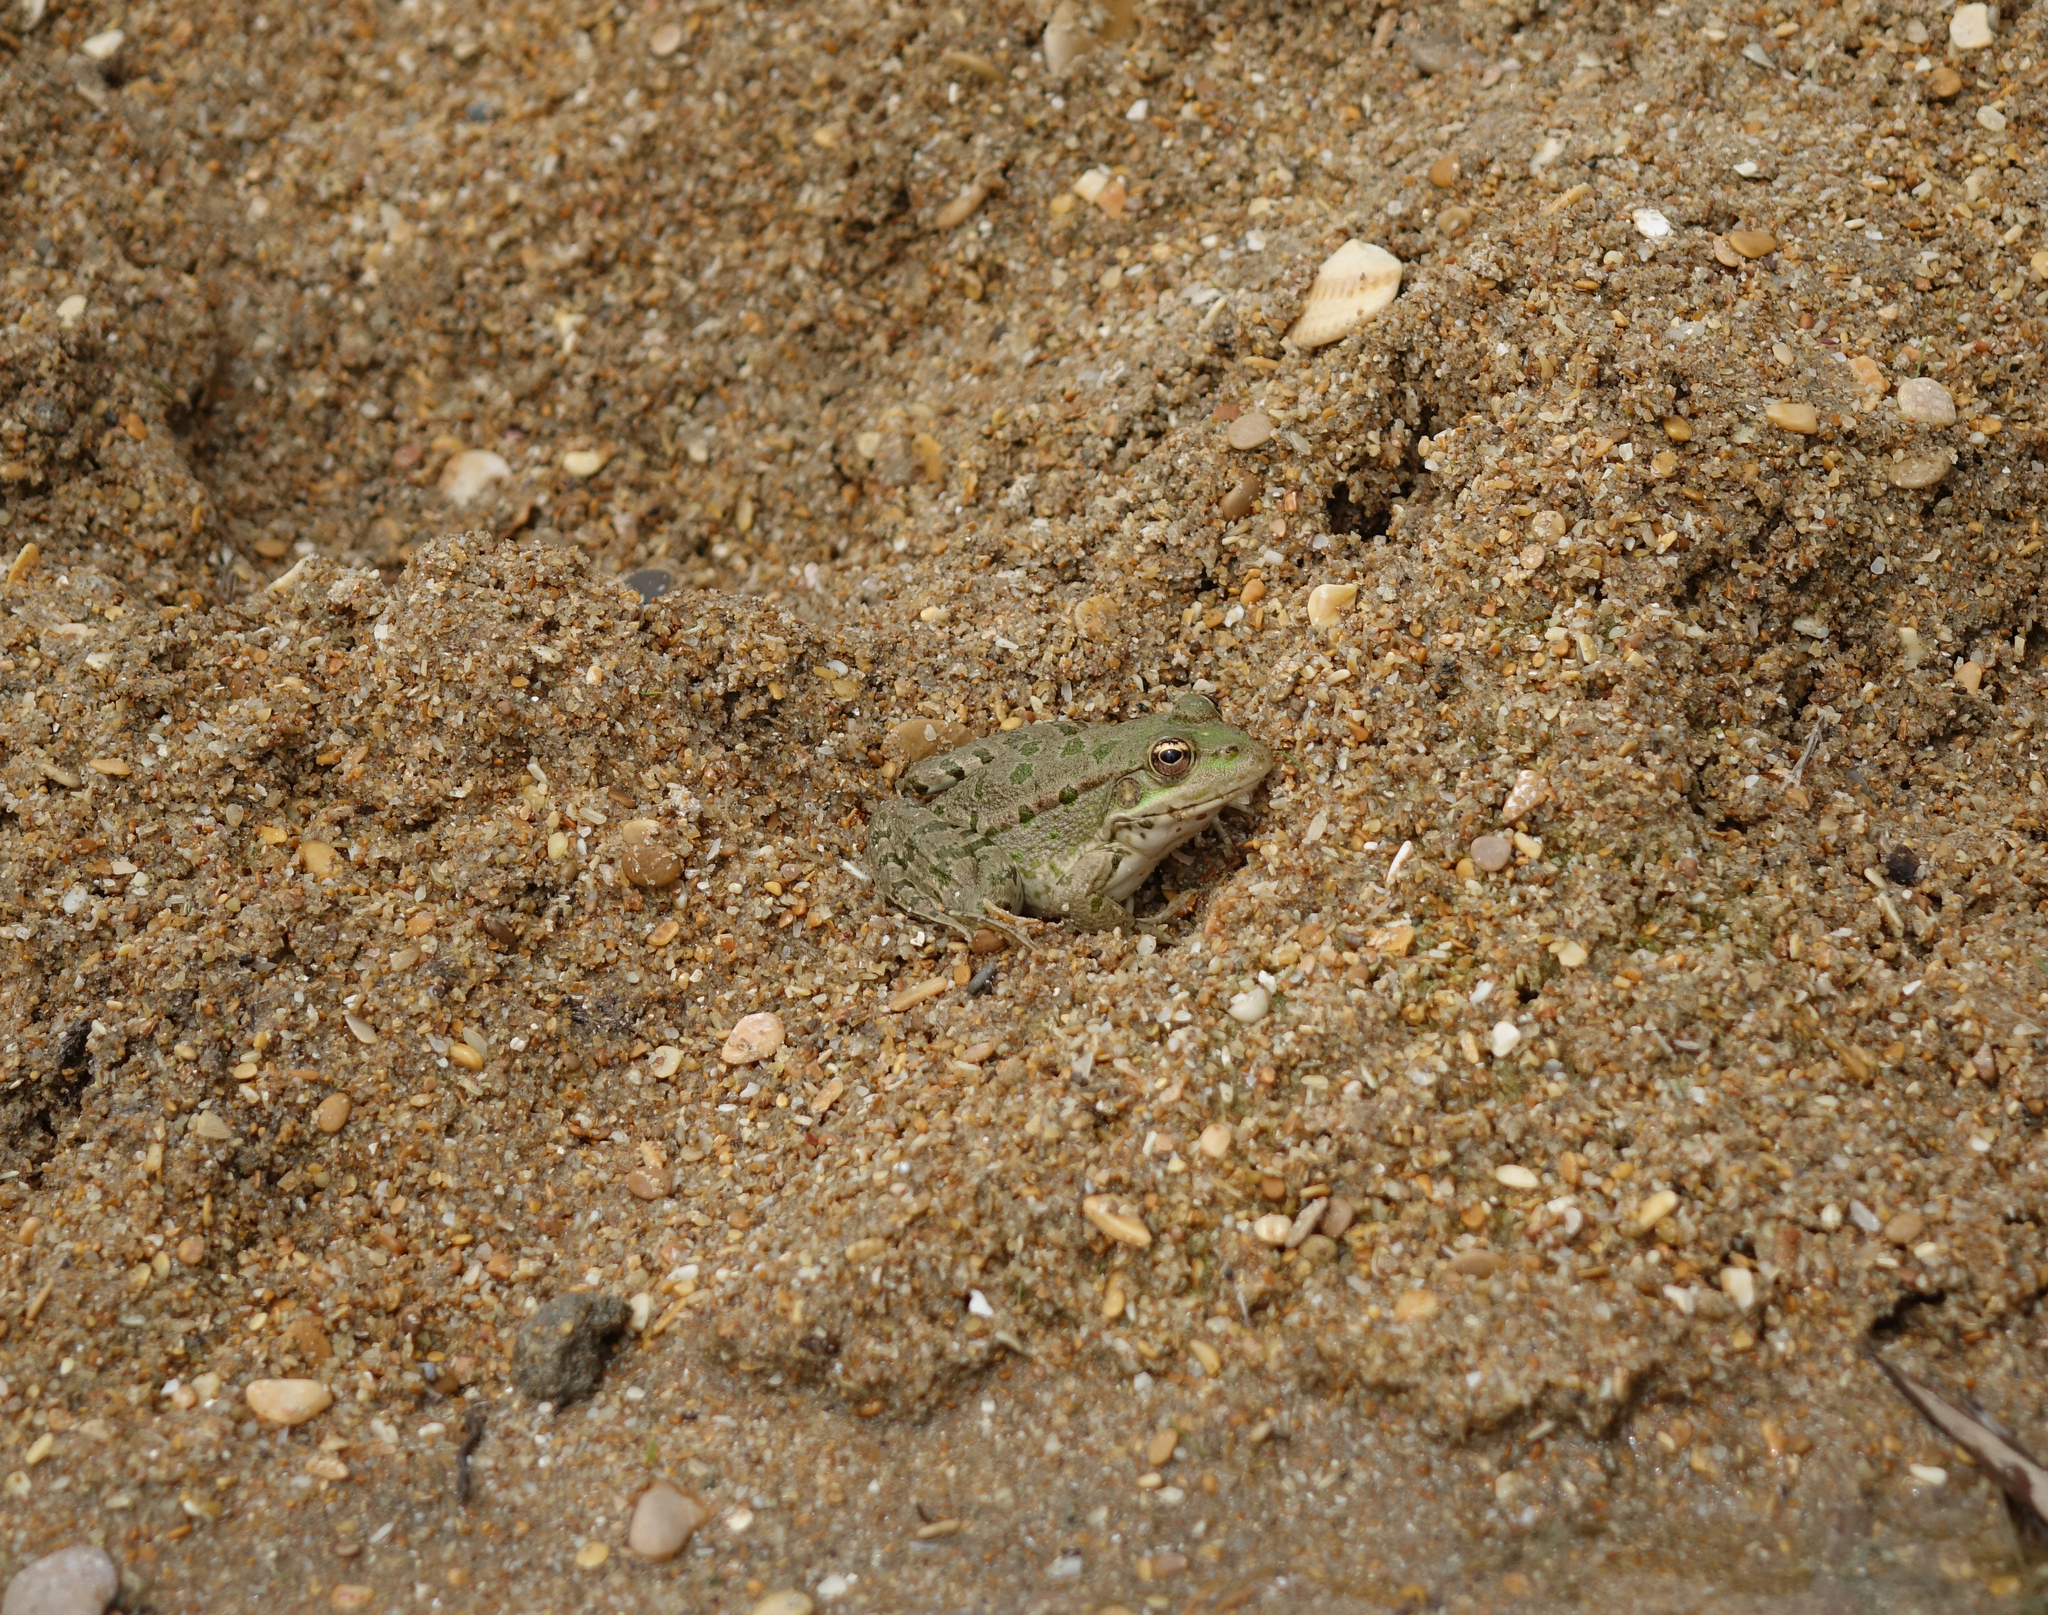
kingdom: Animalia
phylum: Chordata
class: Amphibia
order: Anura
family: Ranidae
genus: Pelophylax
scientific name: Pelophylax ridibundus
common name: Marsh frog
